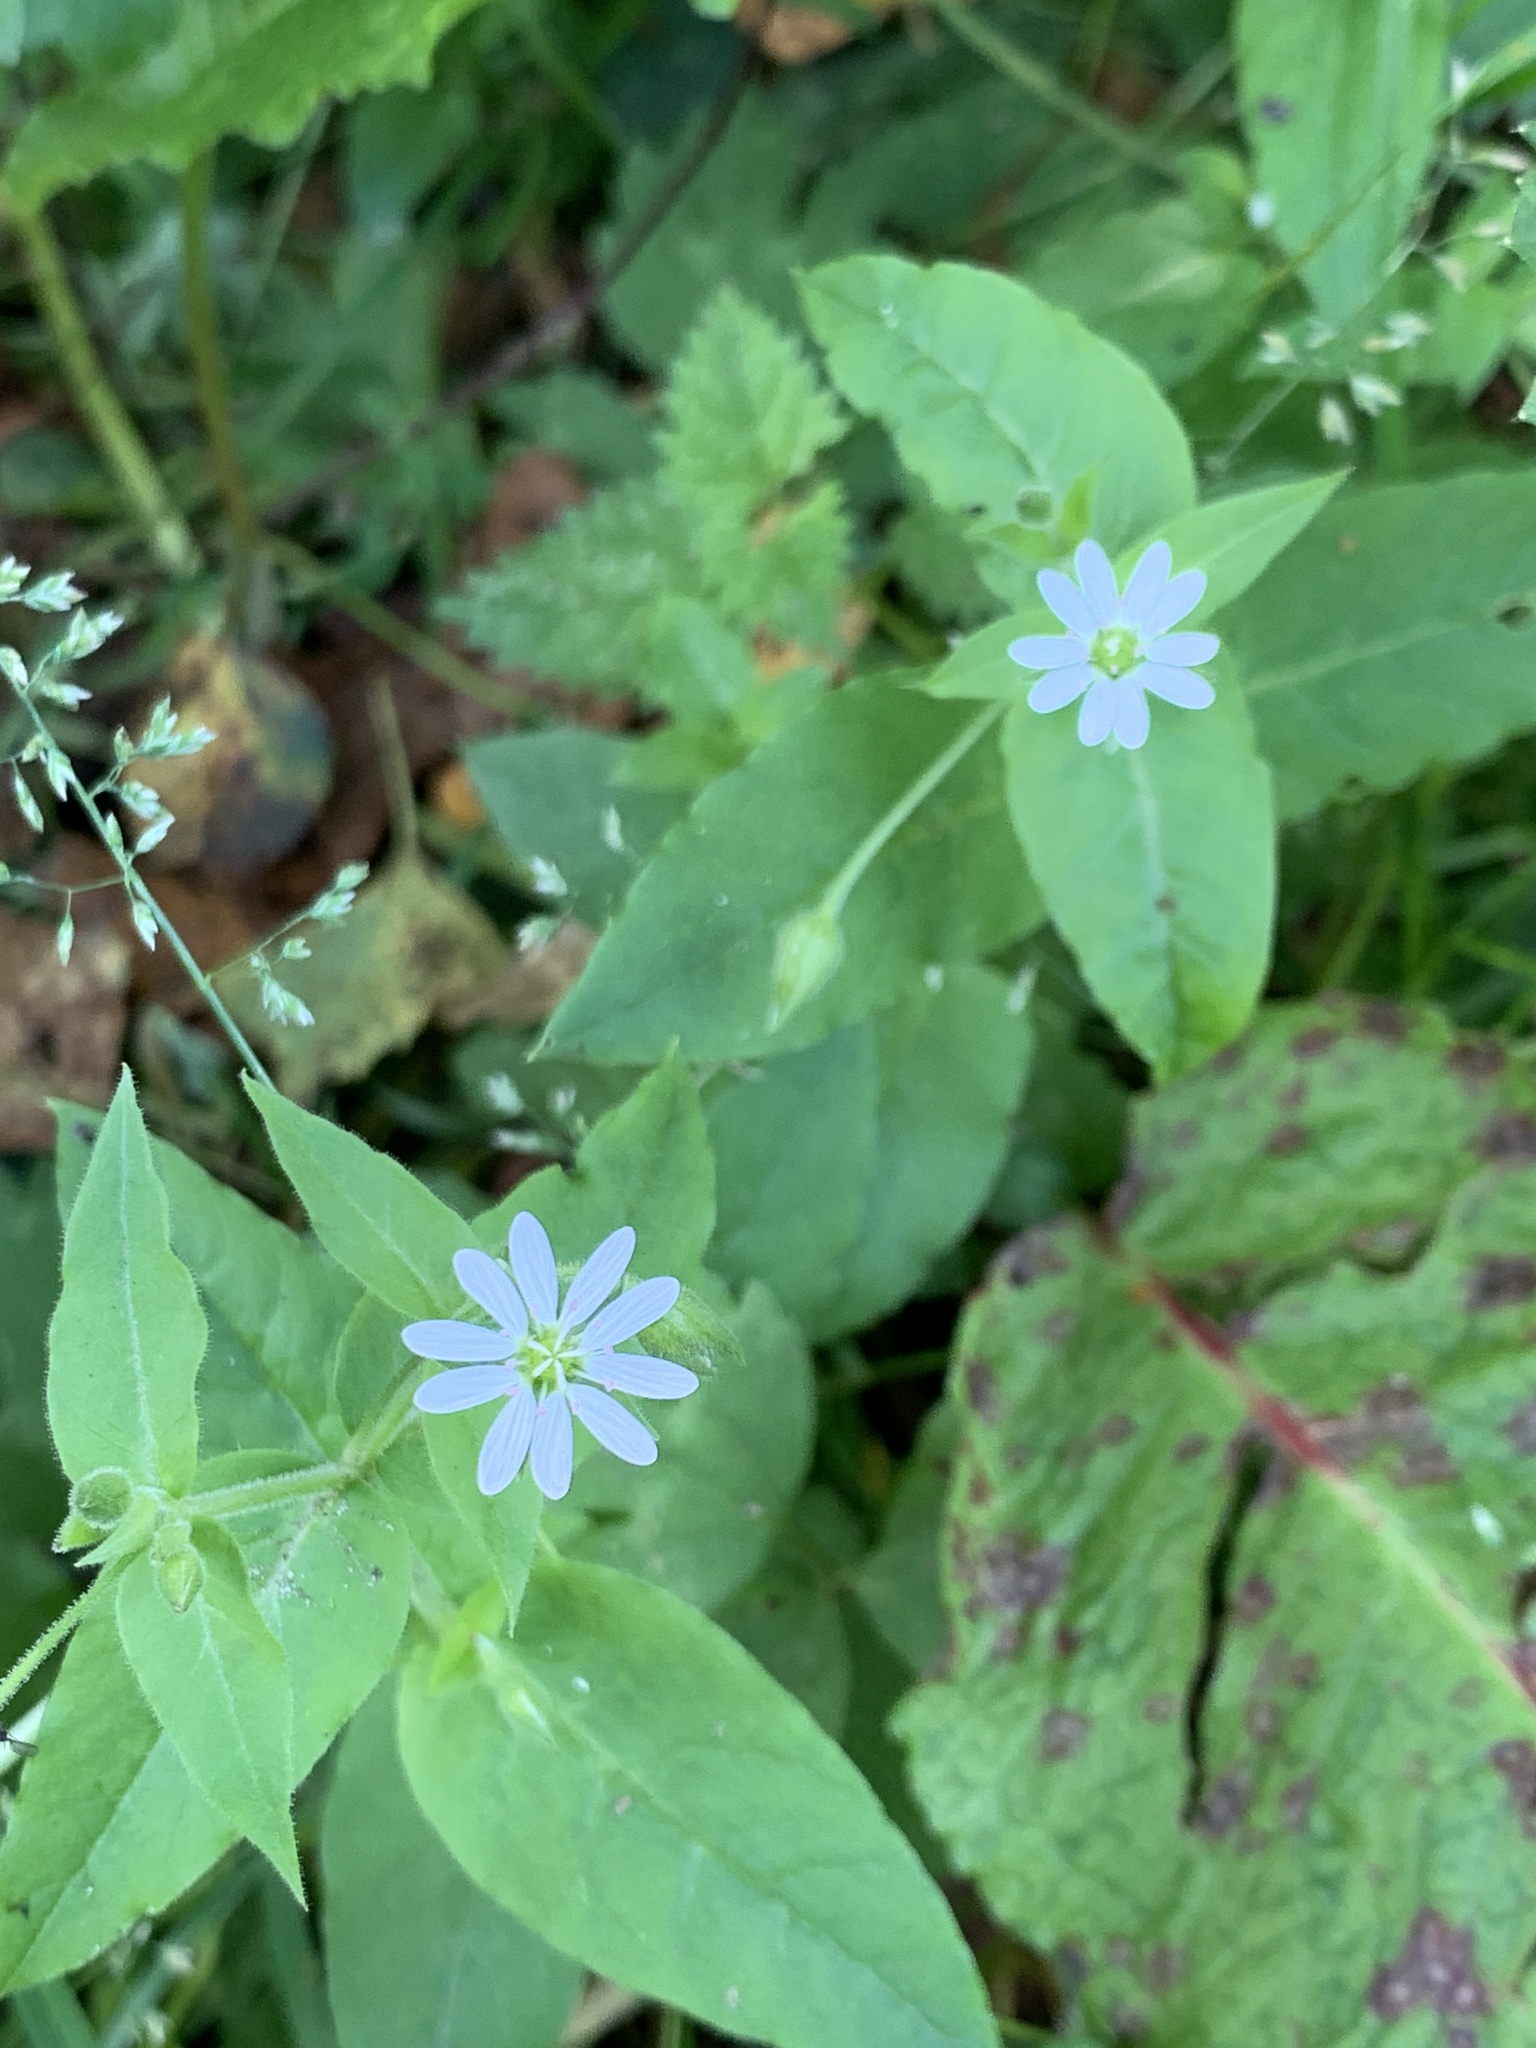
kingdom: Plantae
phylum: Tracheophyta
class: Magnoliopsida
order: Caryophyllales
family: Caryophyllaceae
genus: Stellaria
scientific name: Stellaria aquatica
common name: Water chickweed
